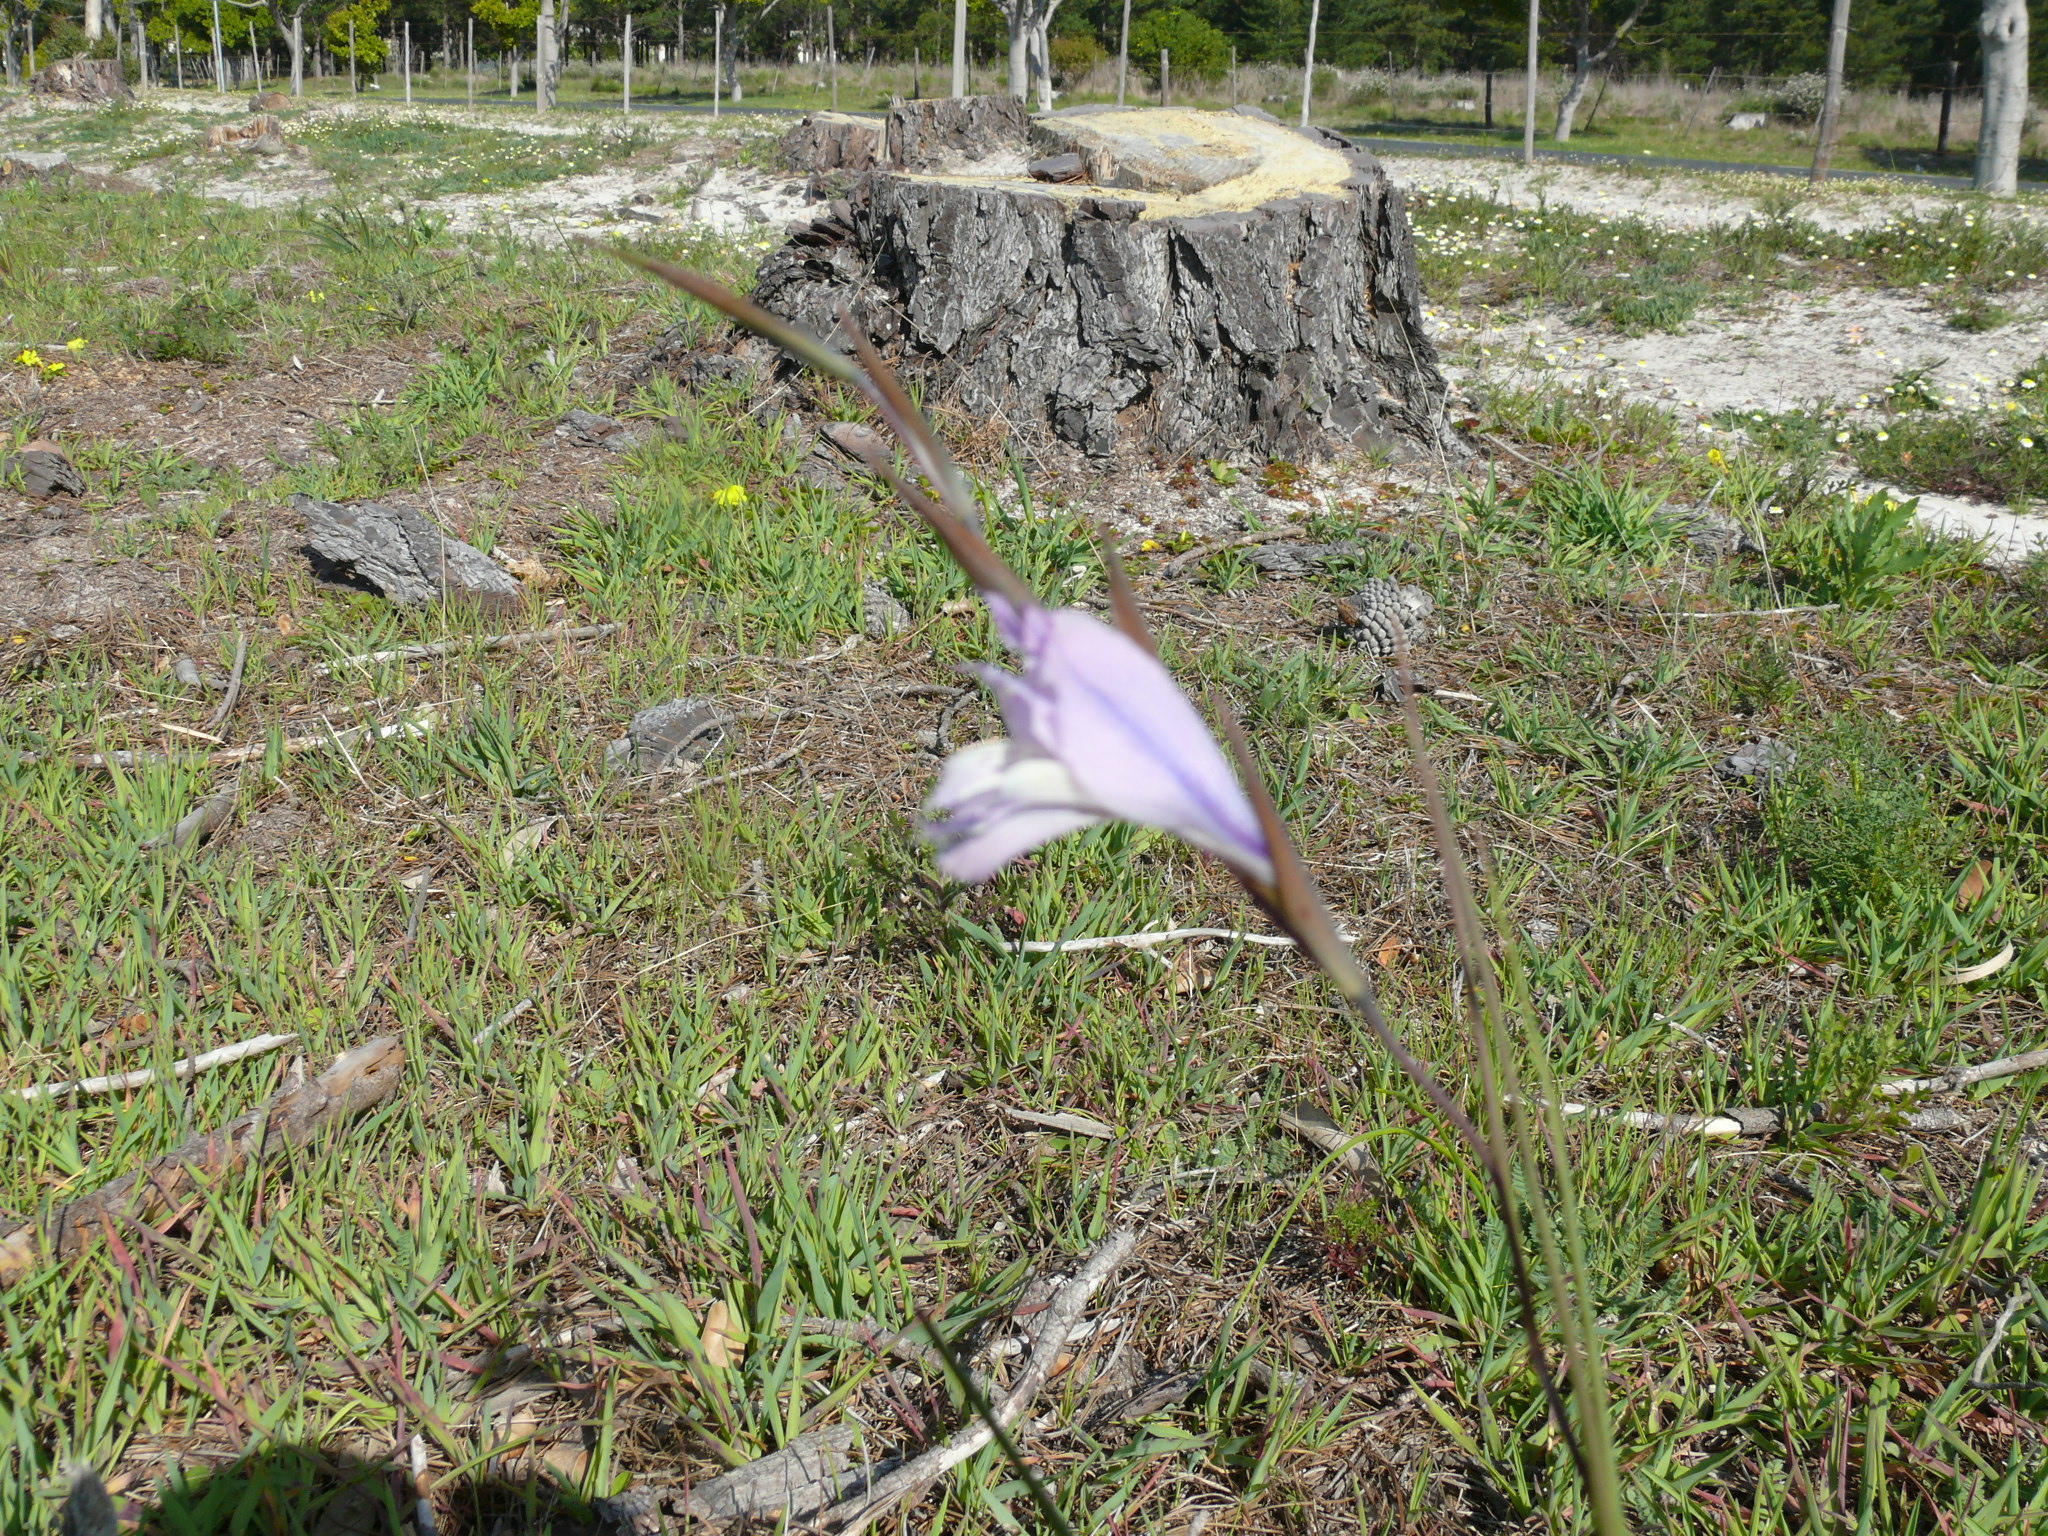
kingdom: Plantae
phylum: Tracheophyta
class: Liliopsida
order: Asparagales
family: Iridaceae
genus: Gladiolus
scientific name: Gladiolus gracilis
